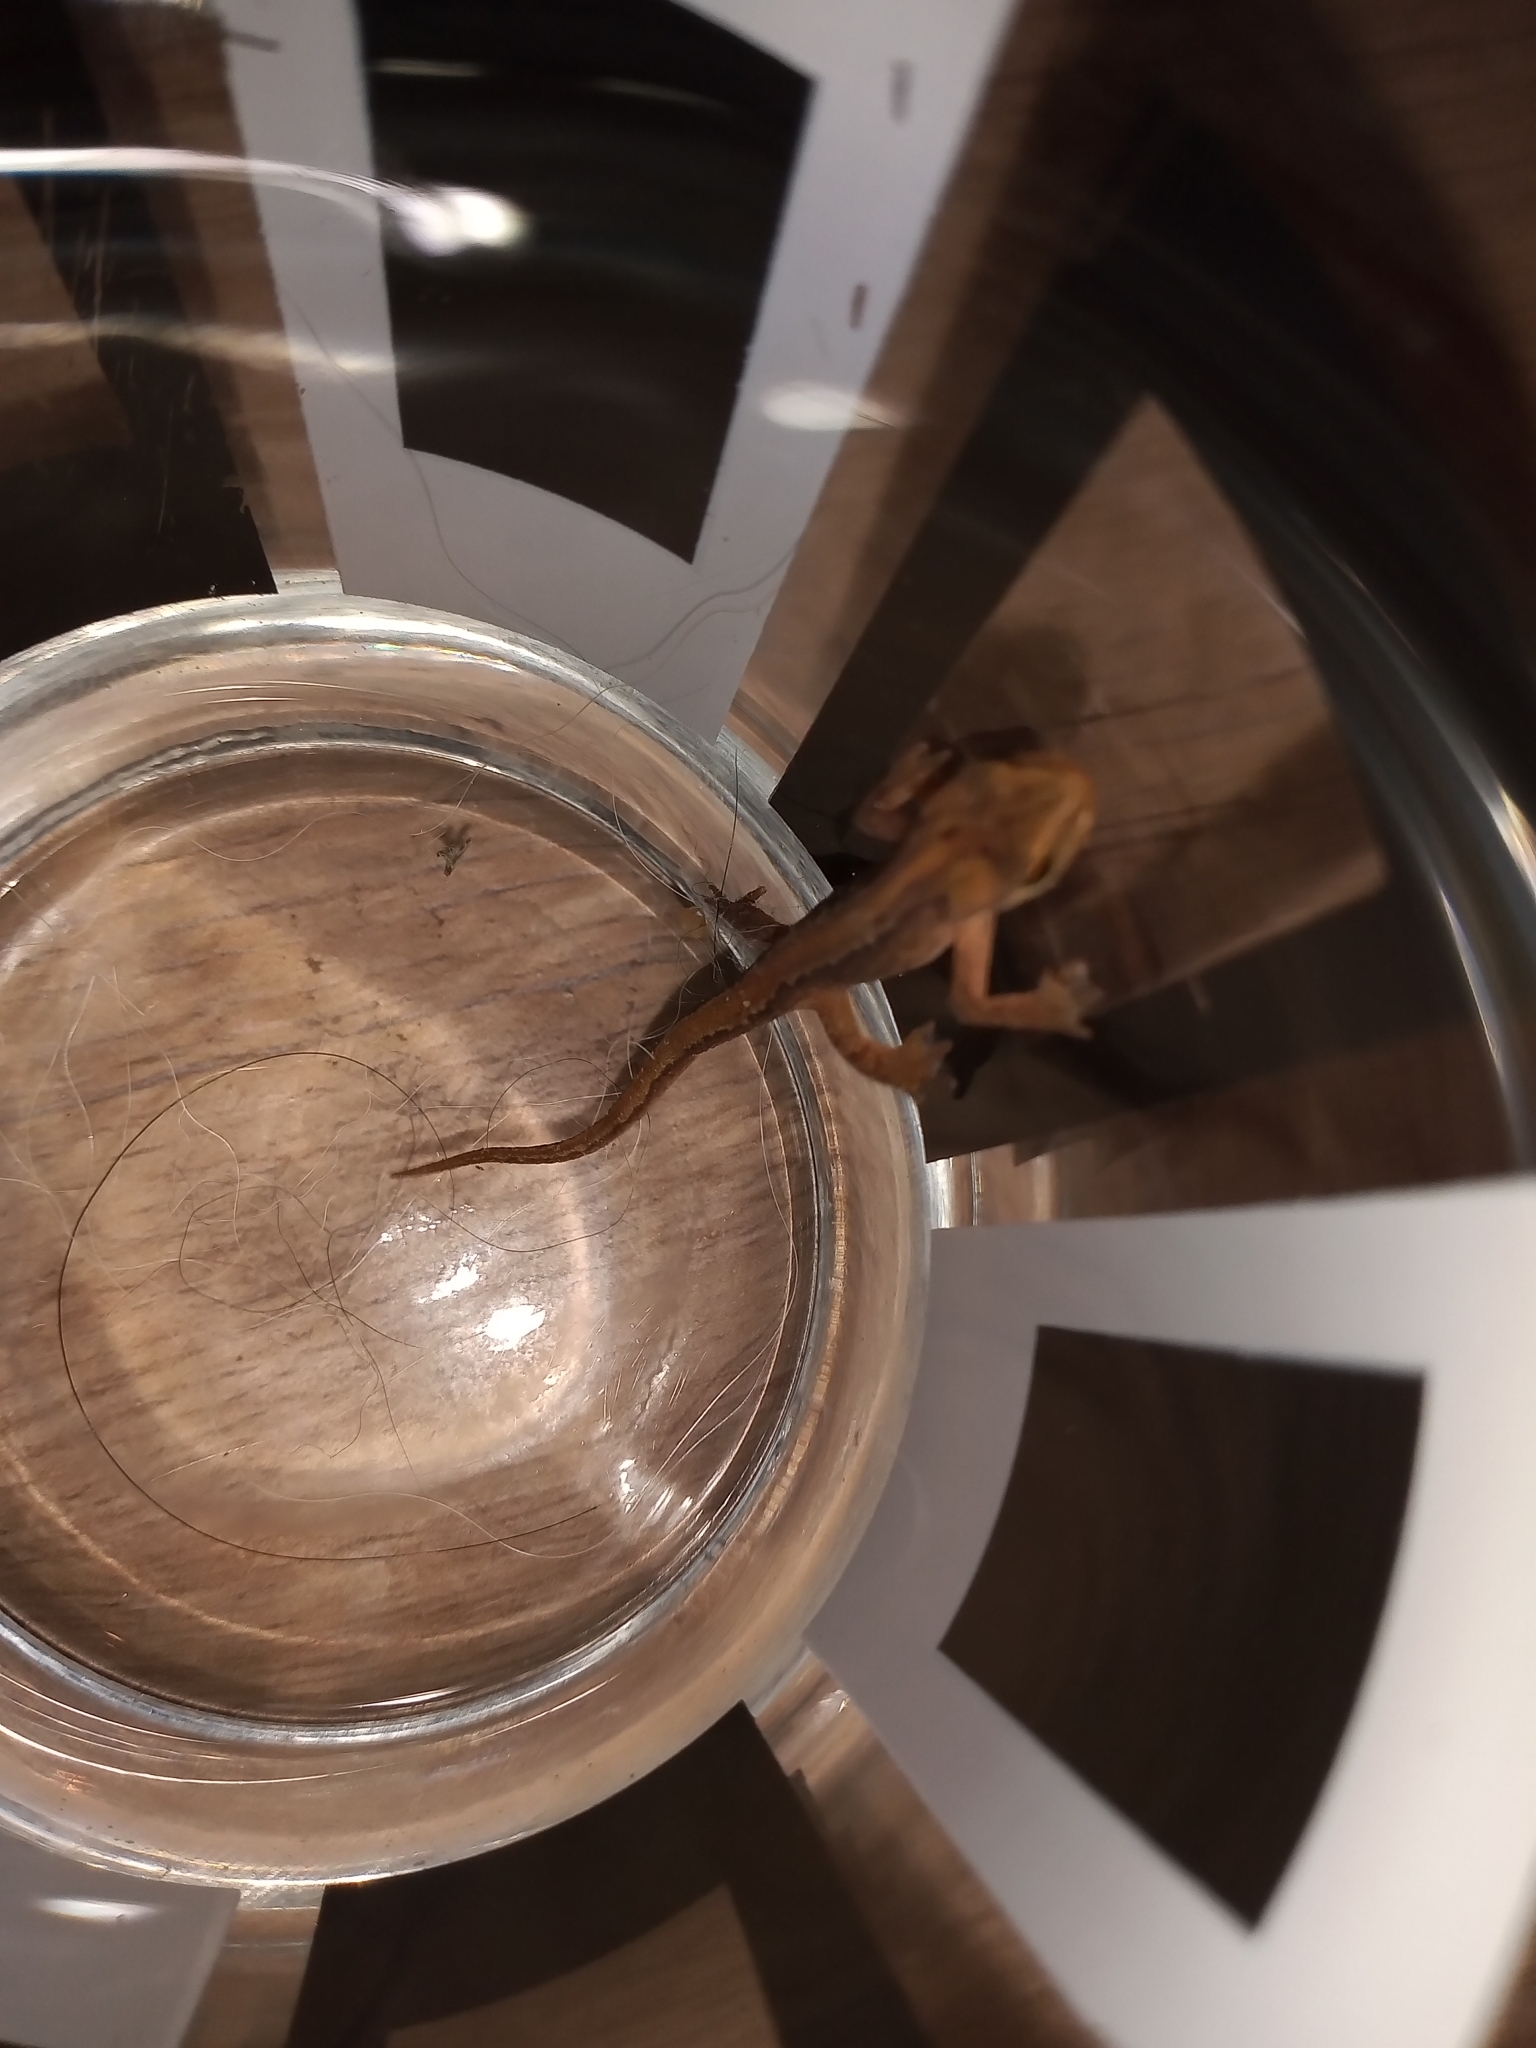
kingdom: Animalia
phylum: Chordata
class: Amphibia
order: Caudata
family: Salamandridae
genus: Lissotriton
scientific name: Lissotriton vulgaris
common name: Smooth newt
